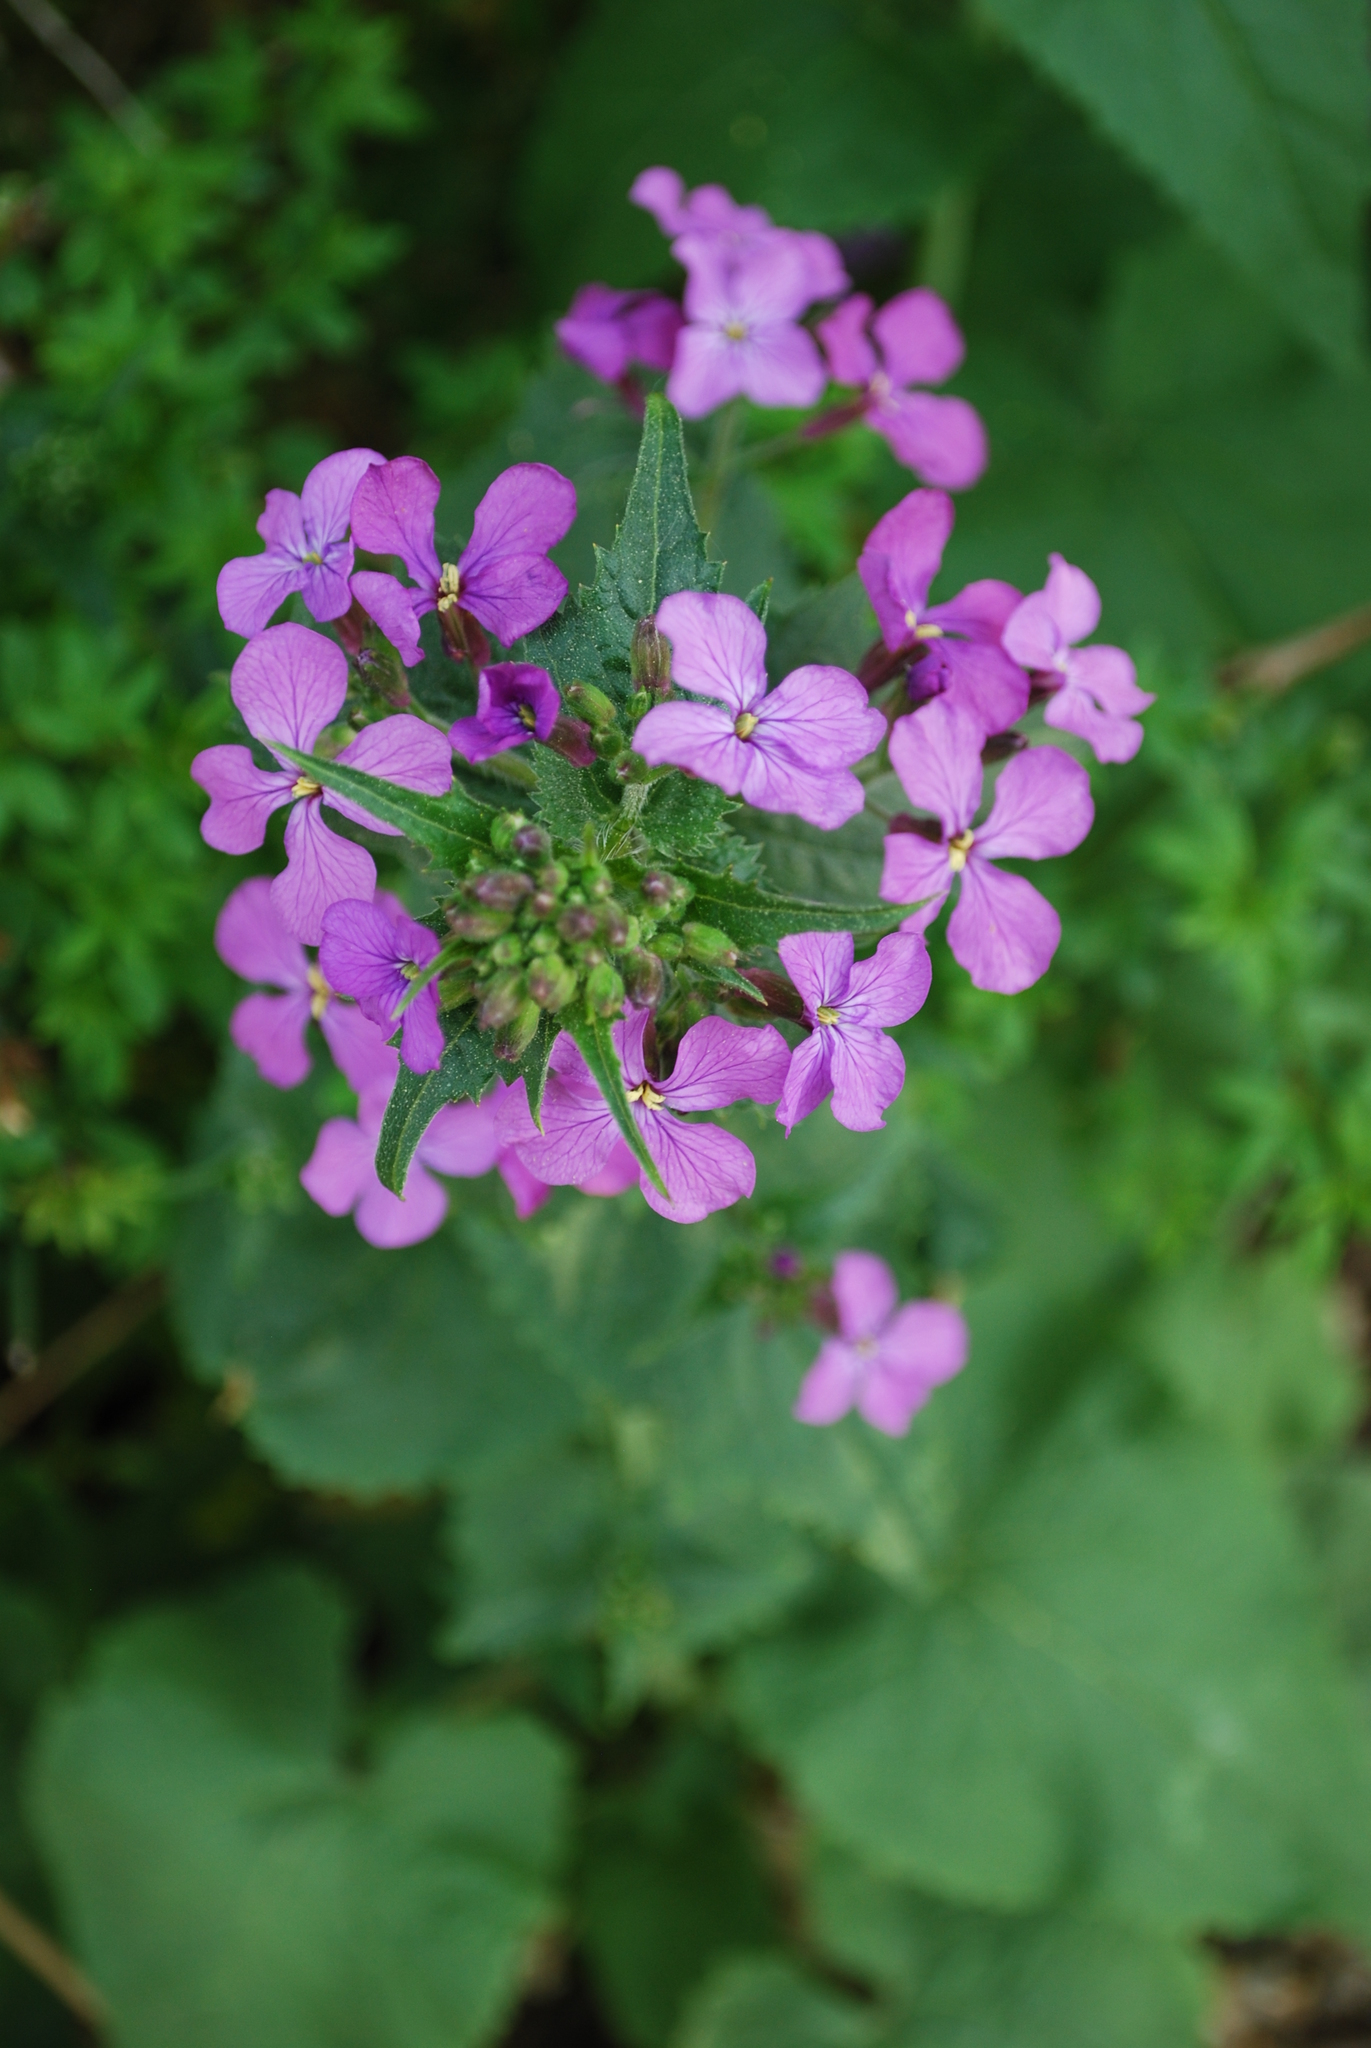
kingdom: Plantae
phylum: Tracheophyta
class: Magnoliopsida
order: Brassicales
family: Brassicaceae
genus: Lunaria
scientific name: Lunaria annua
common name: Honesty
